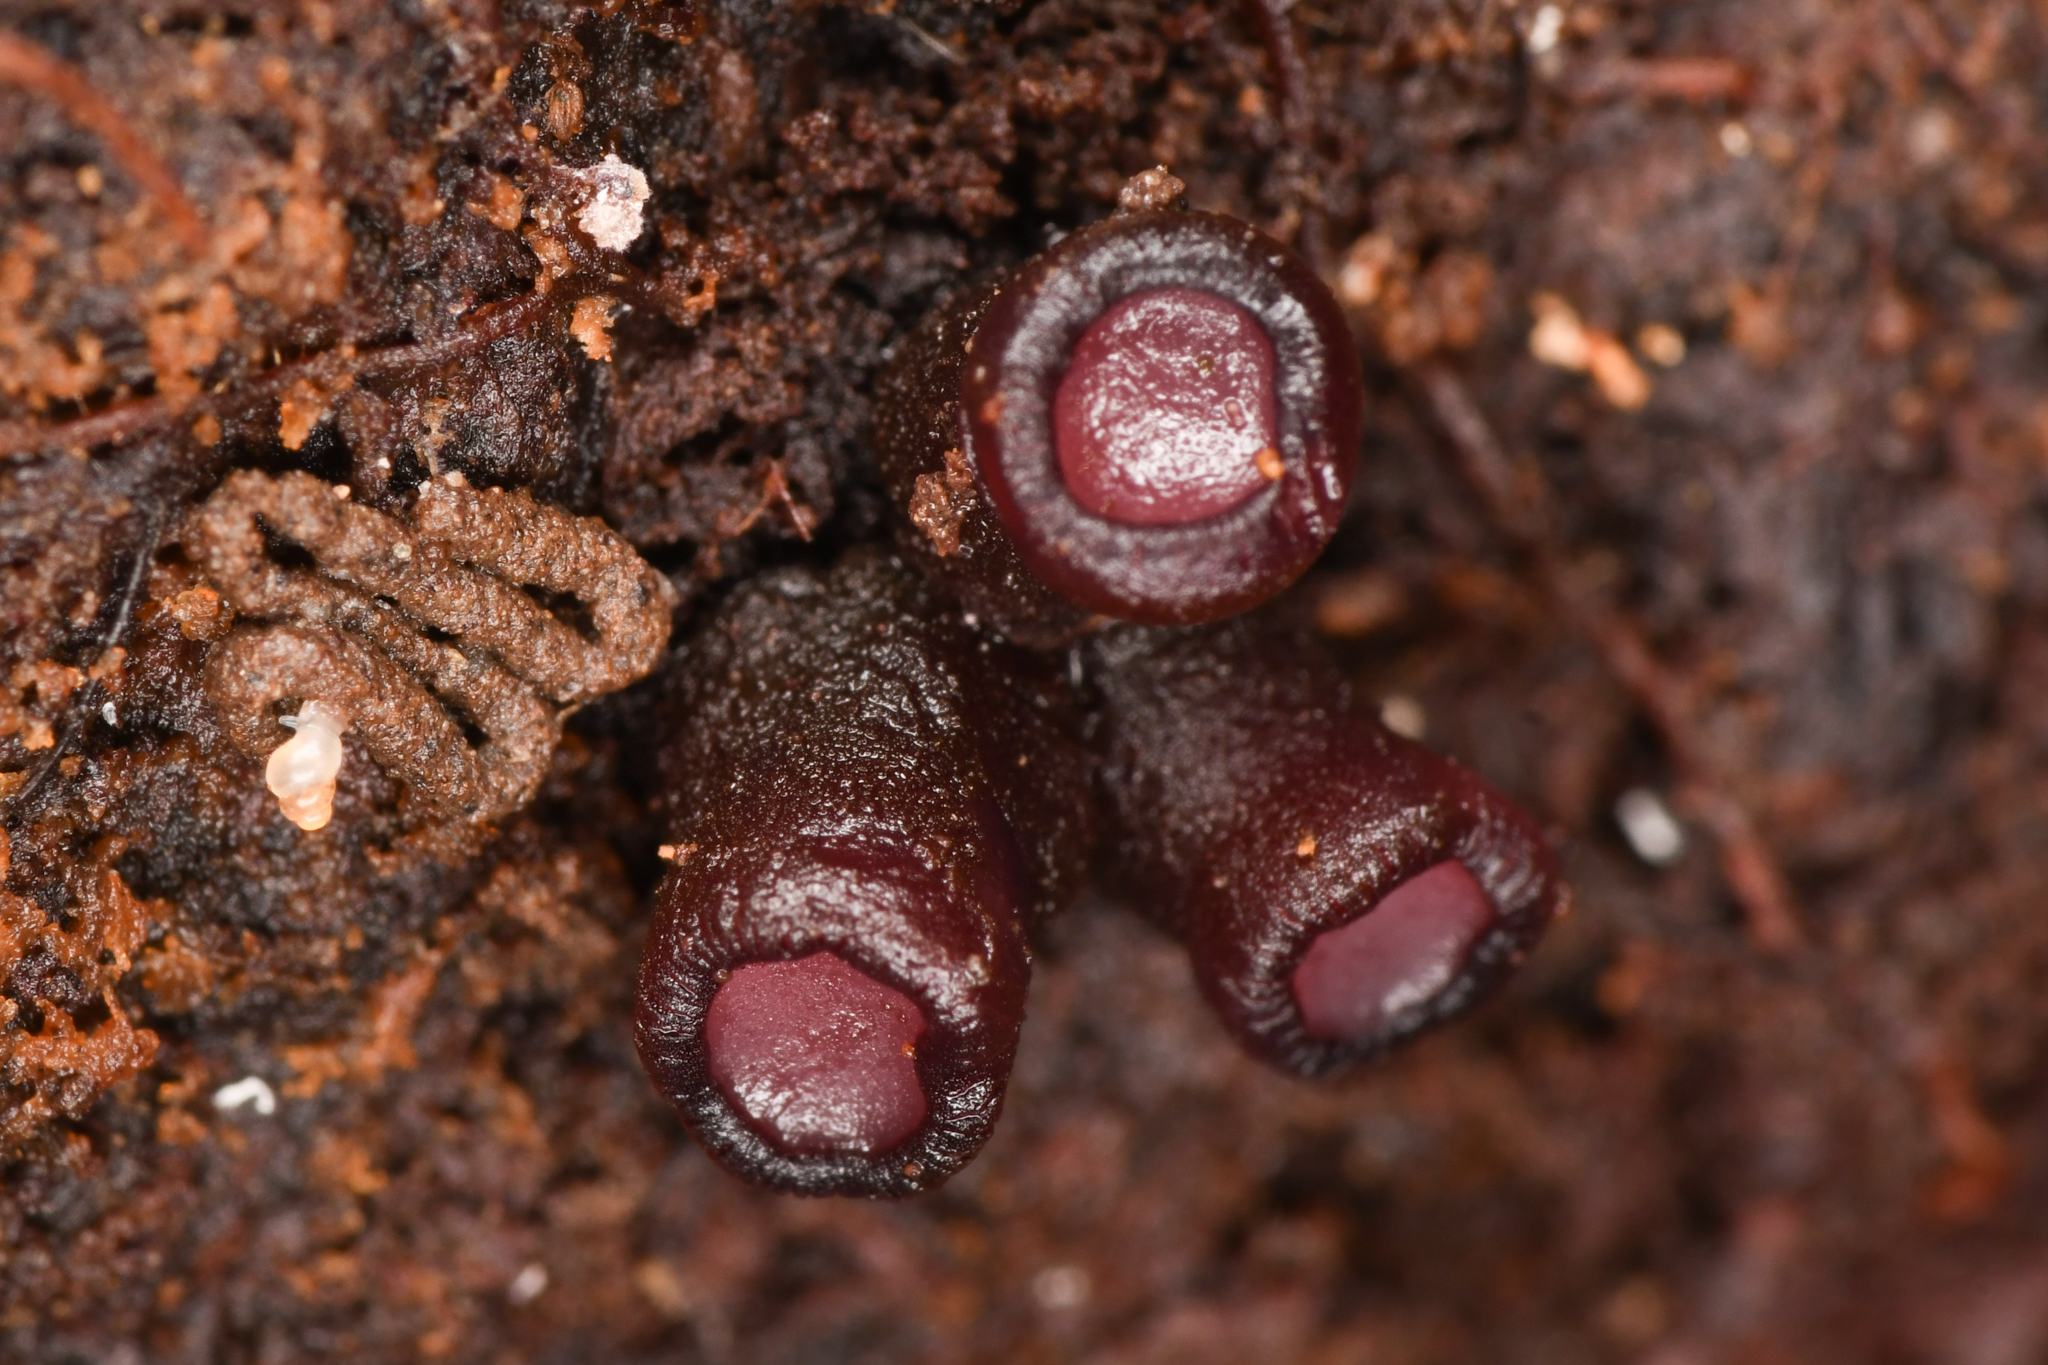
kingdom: Fungi
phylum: Ascomycota
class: Leotiomycetes
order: Helotiales
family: Gelatinodiscaceae
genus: Ascocoryne
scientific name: Ascocoryne sarcoides
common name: Purple jellydisc
